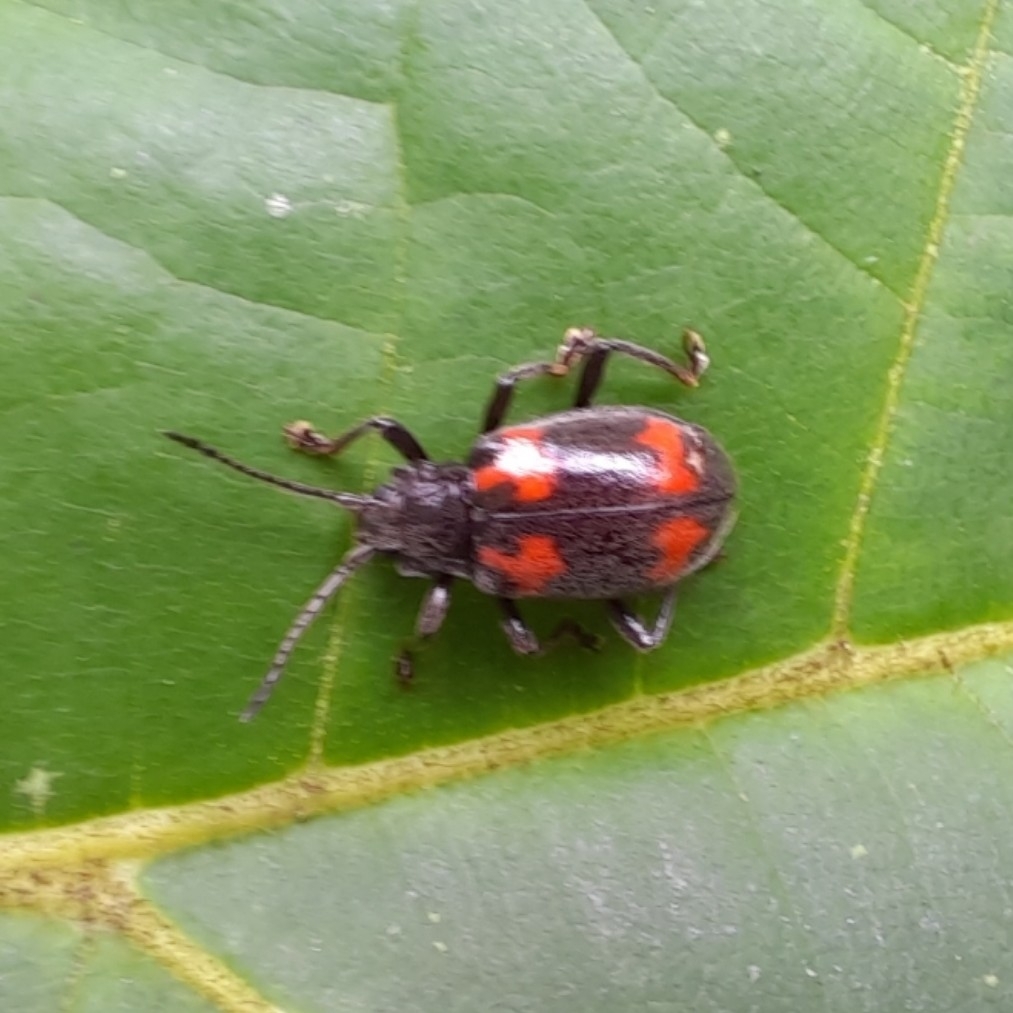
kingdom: Animalia
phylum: Arthropoda
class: Insecta
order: Coleoptera
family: Endomychidae
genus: Parindalmus
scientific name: Parindalmus
